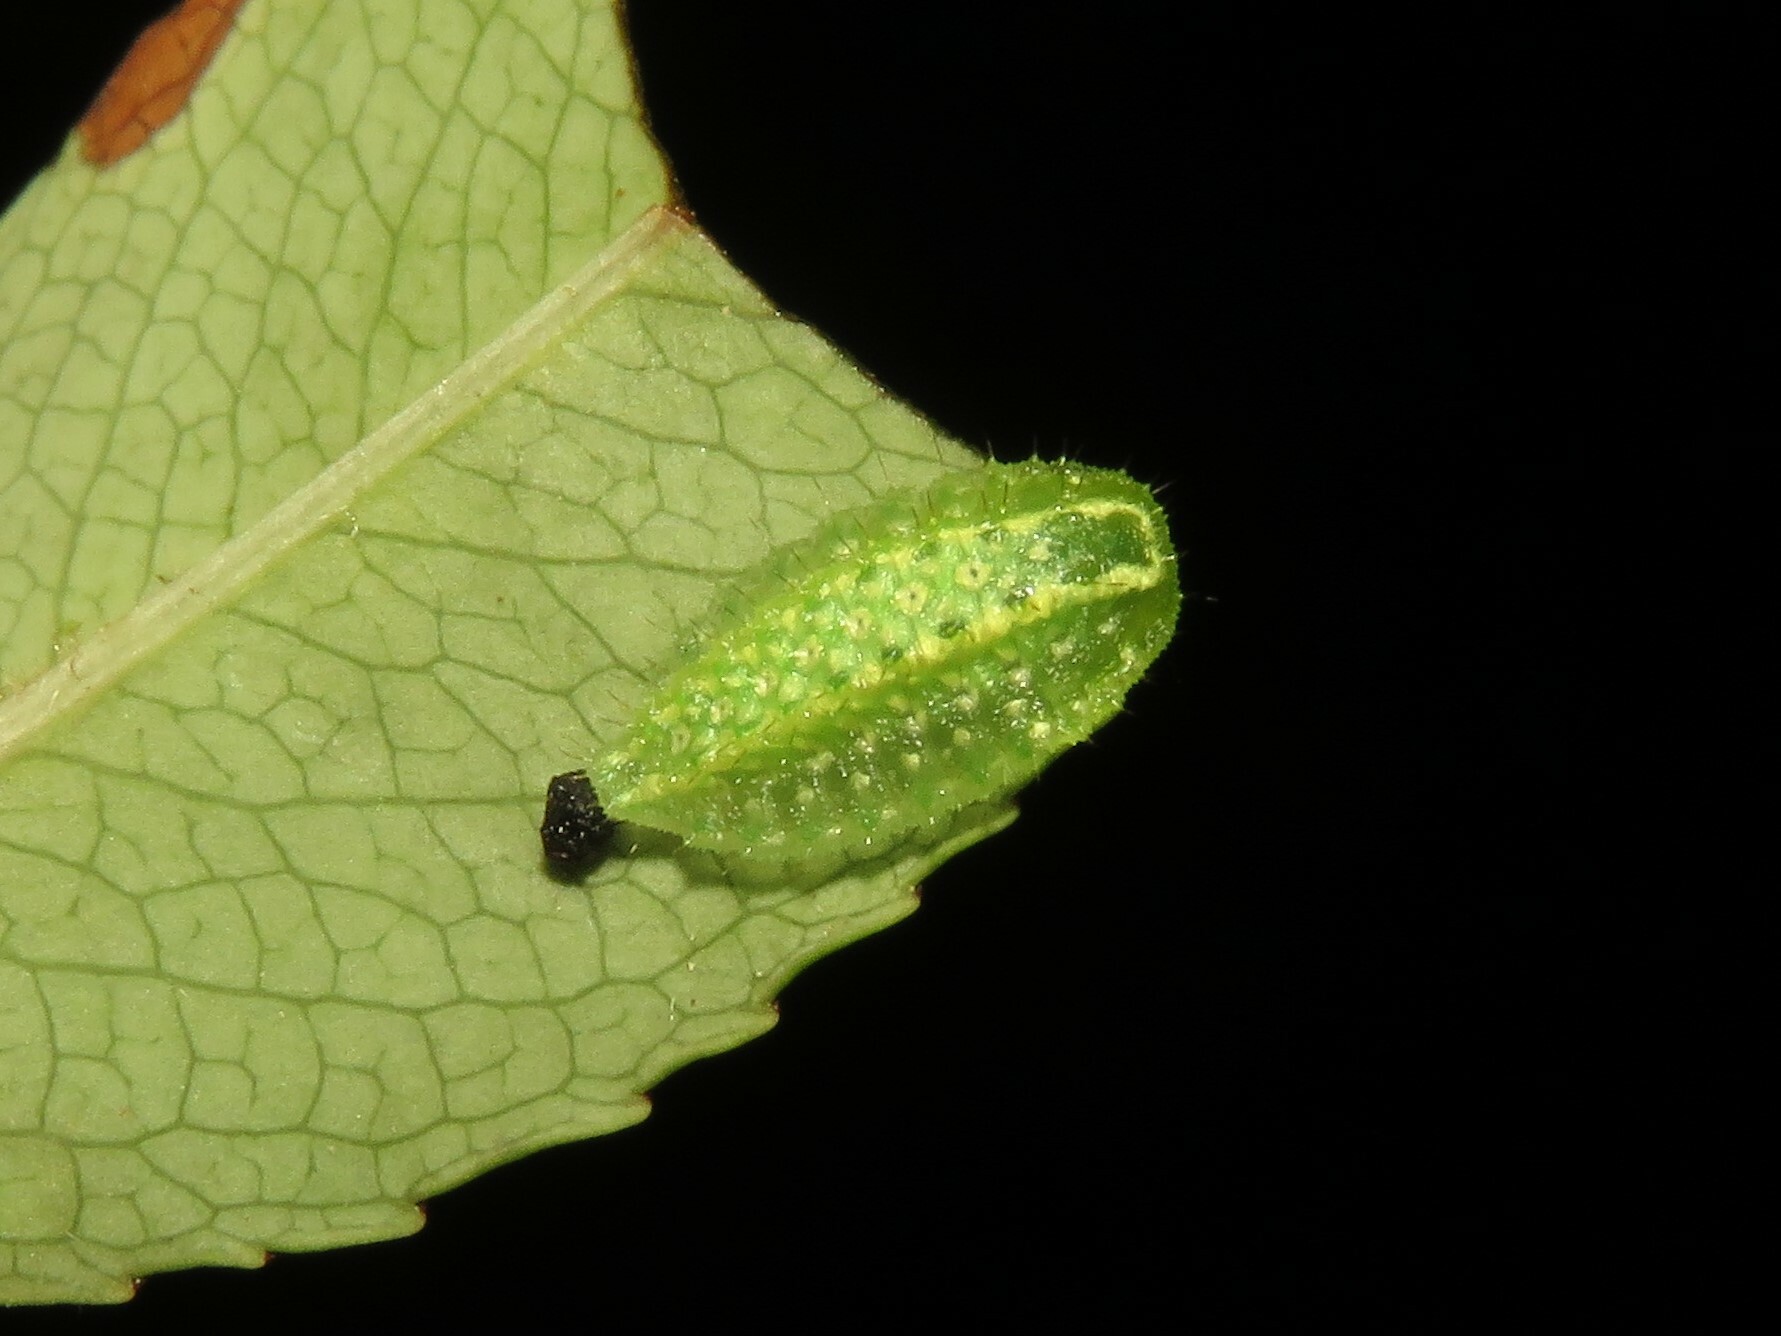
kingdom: Animalia
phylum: Arthropoda
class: Insecta
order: Lepidoptera
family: Limacodidae
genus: Lithacodes
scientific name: Lithacodes fasciola
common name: Yellow-shouldered slug moth
